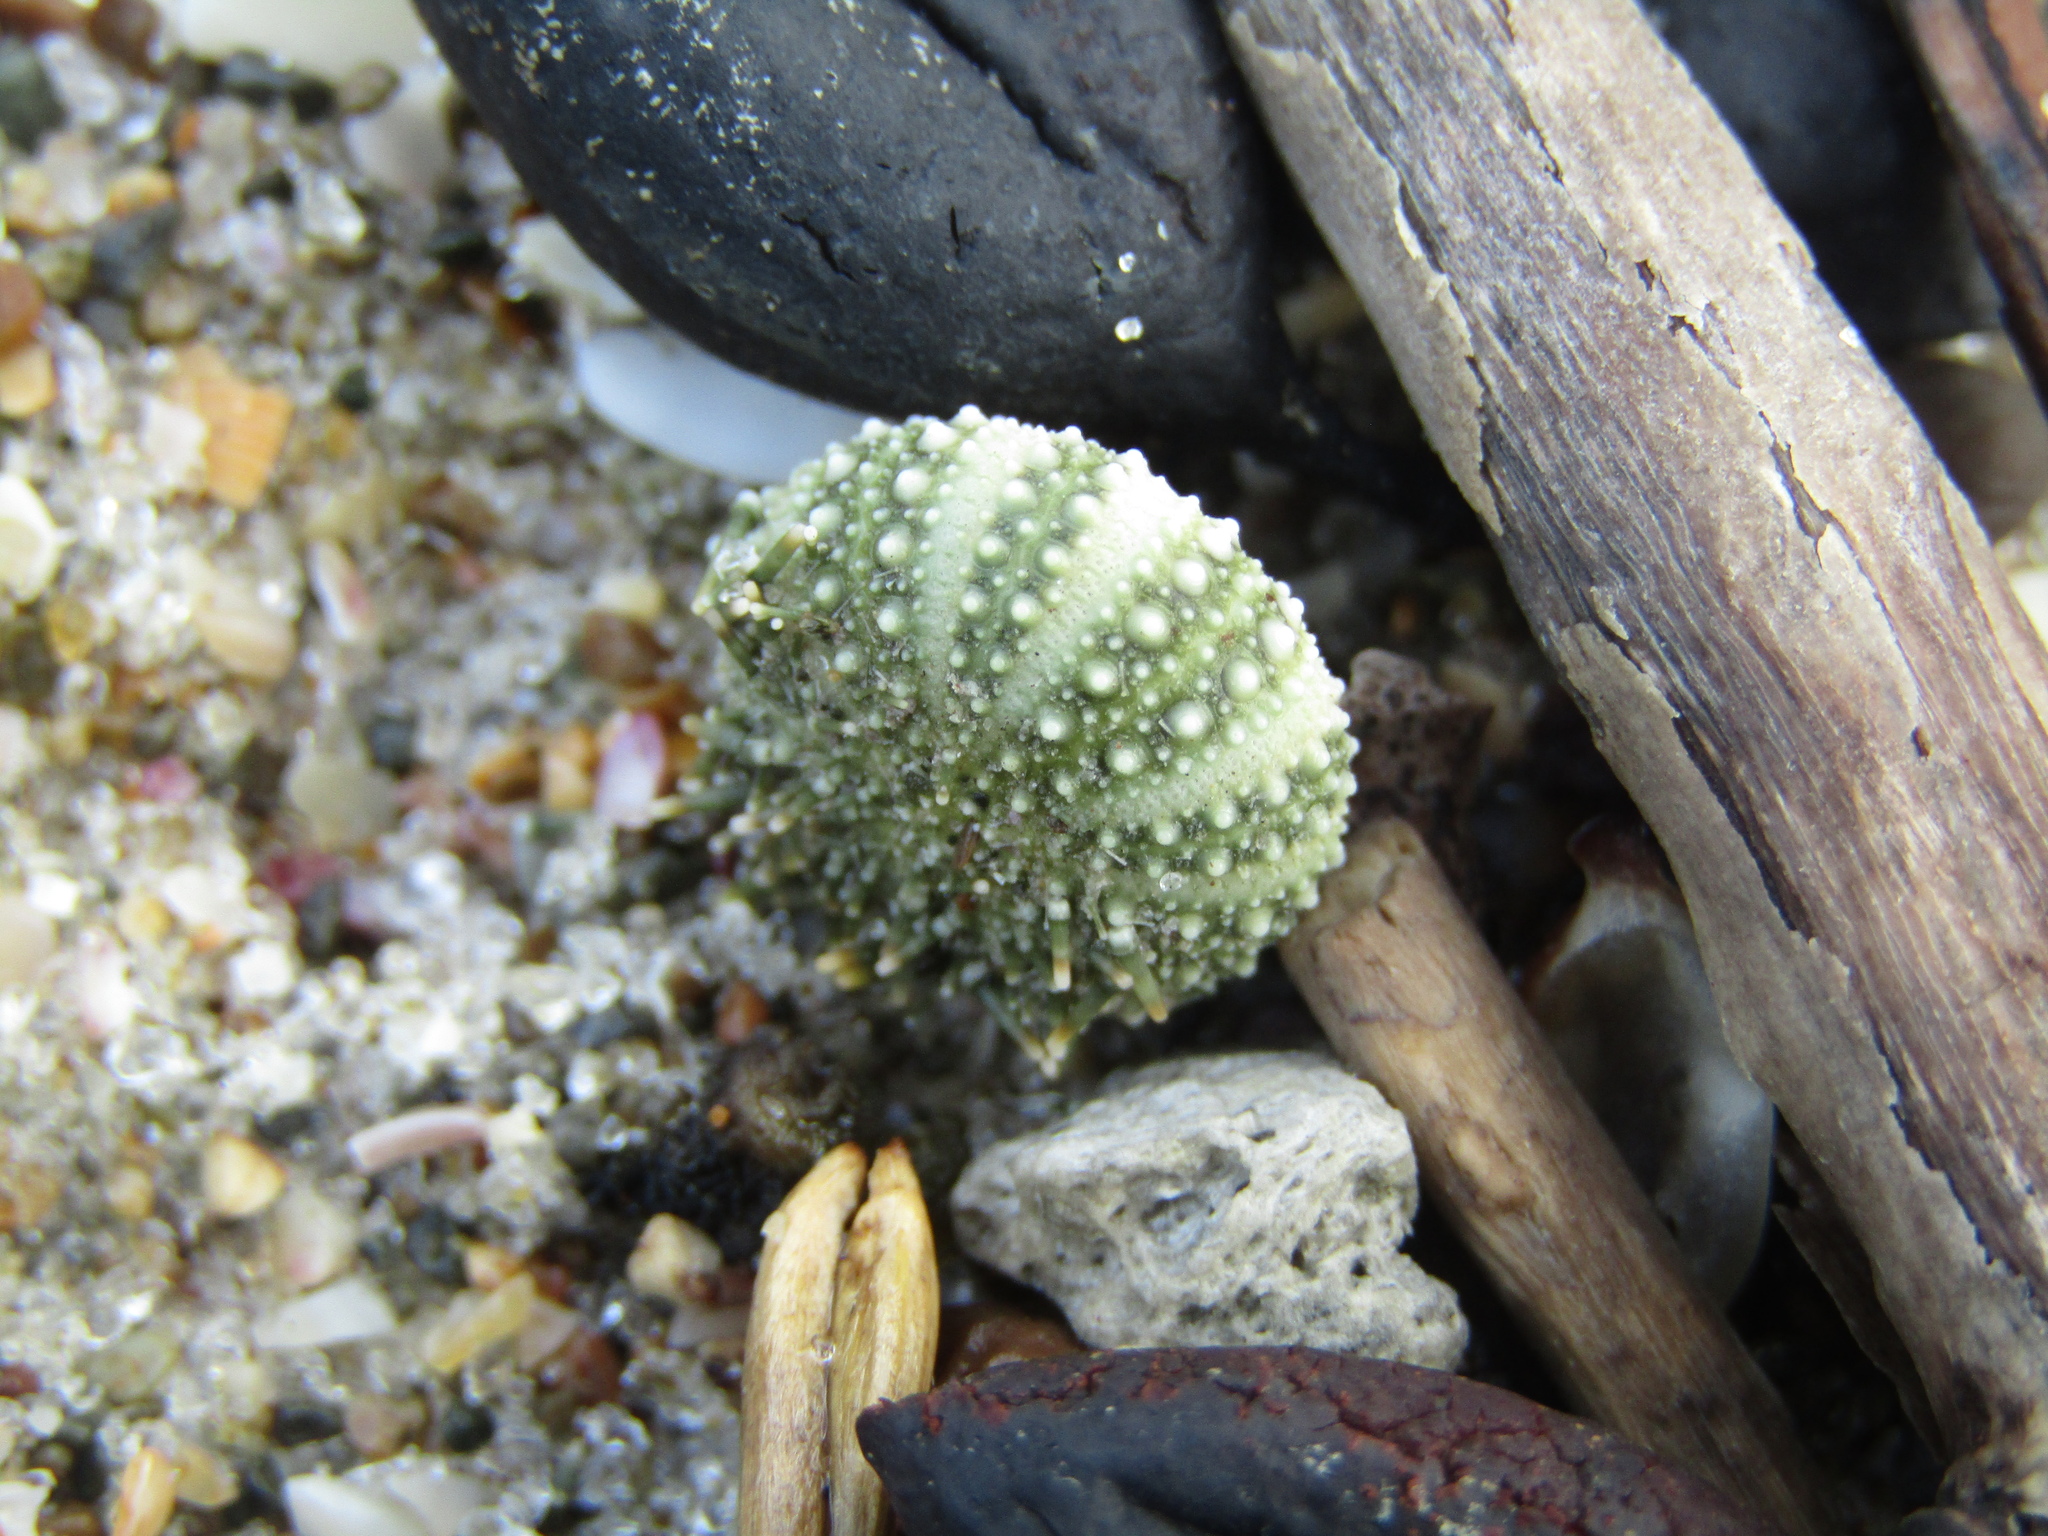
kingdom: Animalia
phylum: Echinodermata
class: Echinoidea
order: Camarodonta
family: Echinometridae
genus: Evechinus
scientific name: Evechinus chloroticus
